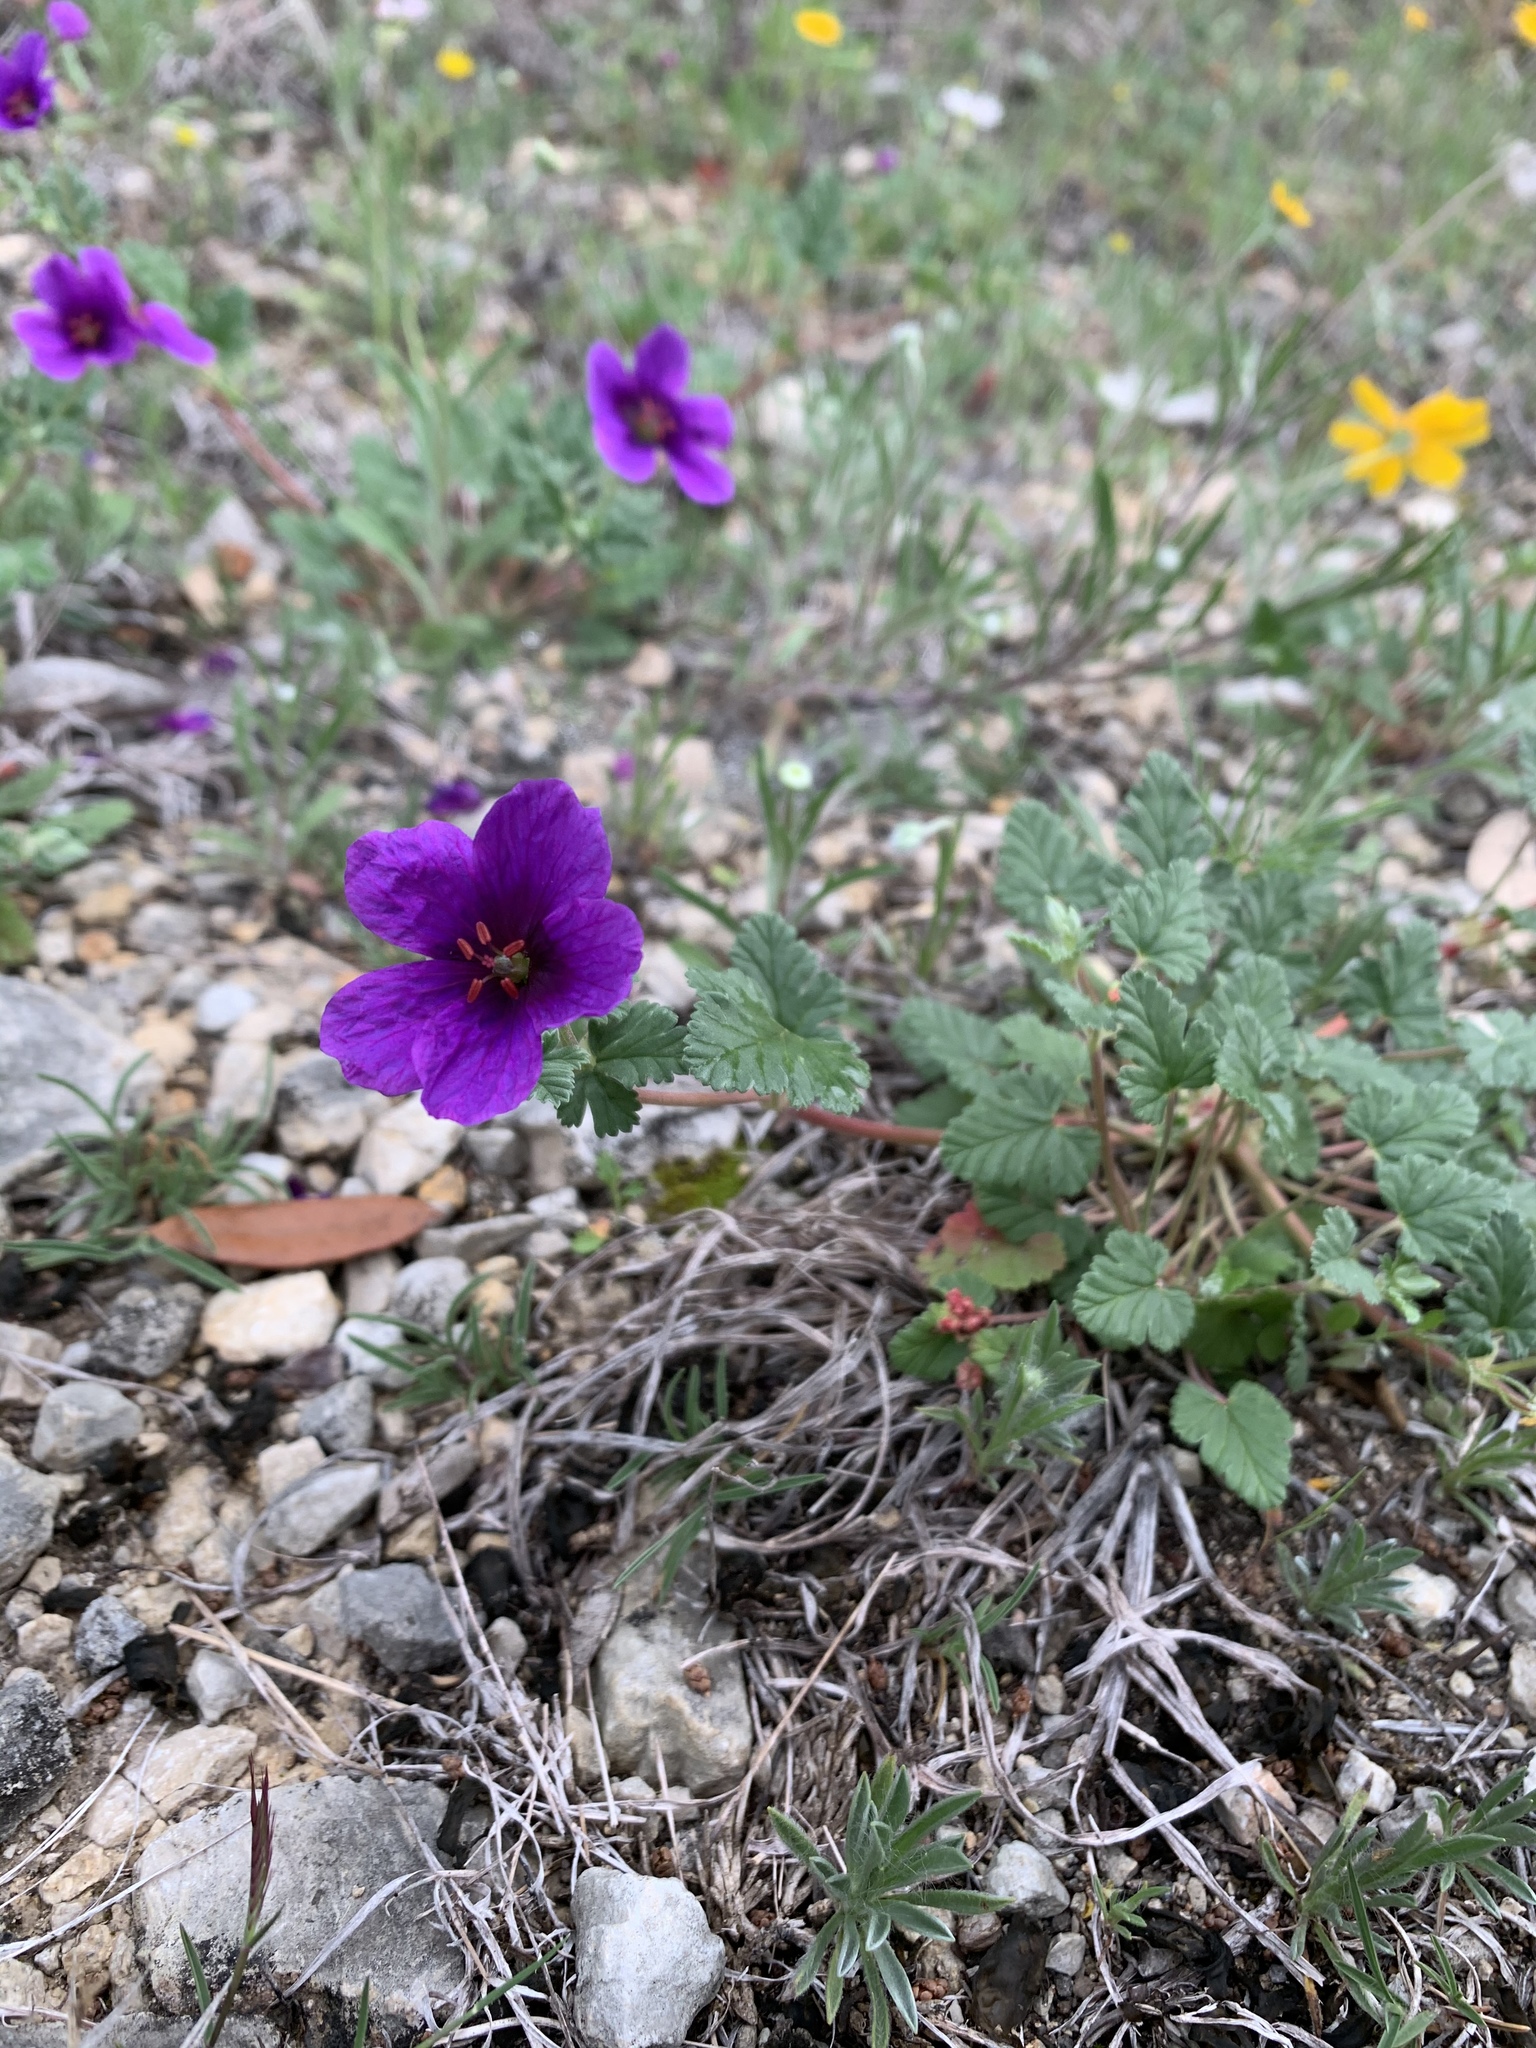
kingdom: Plantae
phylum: Tracheophyta
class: Magnoliopsida
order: Geraniales
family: Geraniaceae
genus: Erodium
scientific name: Erodium texanum
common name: Texas stork's-bill
